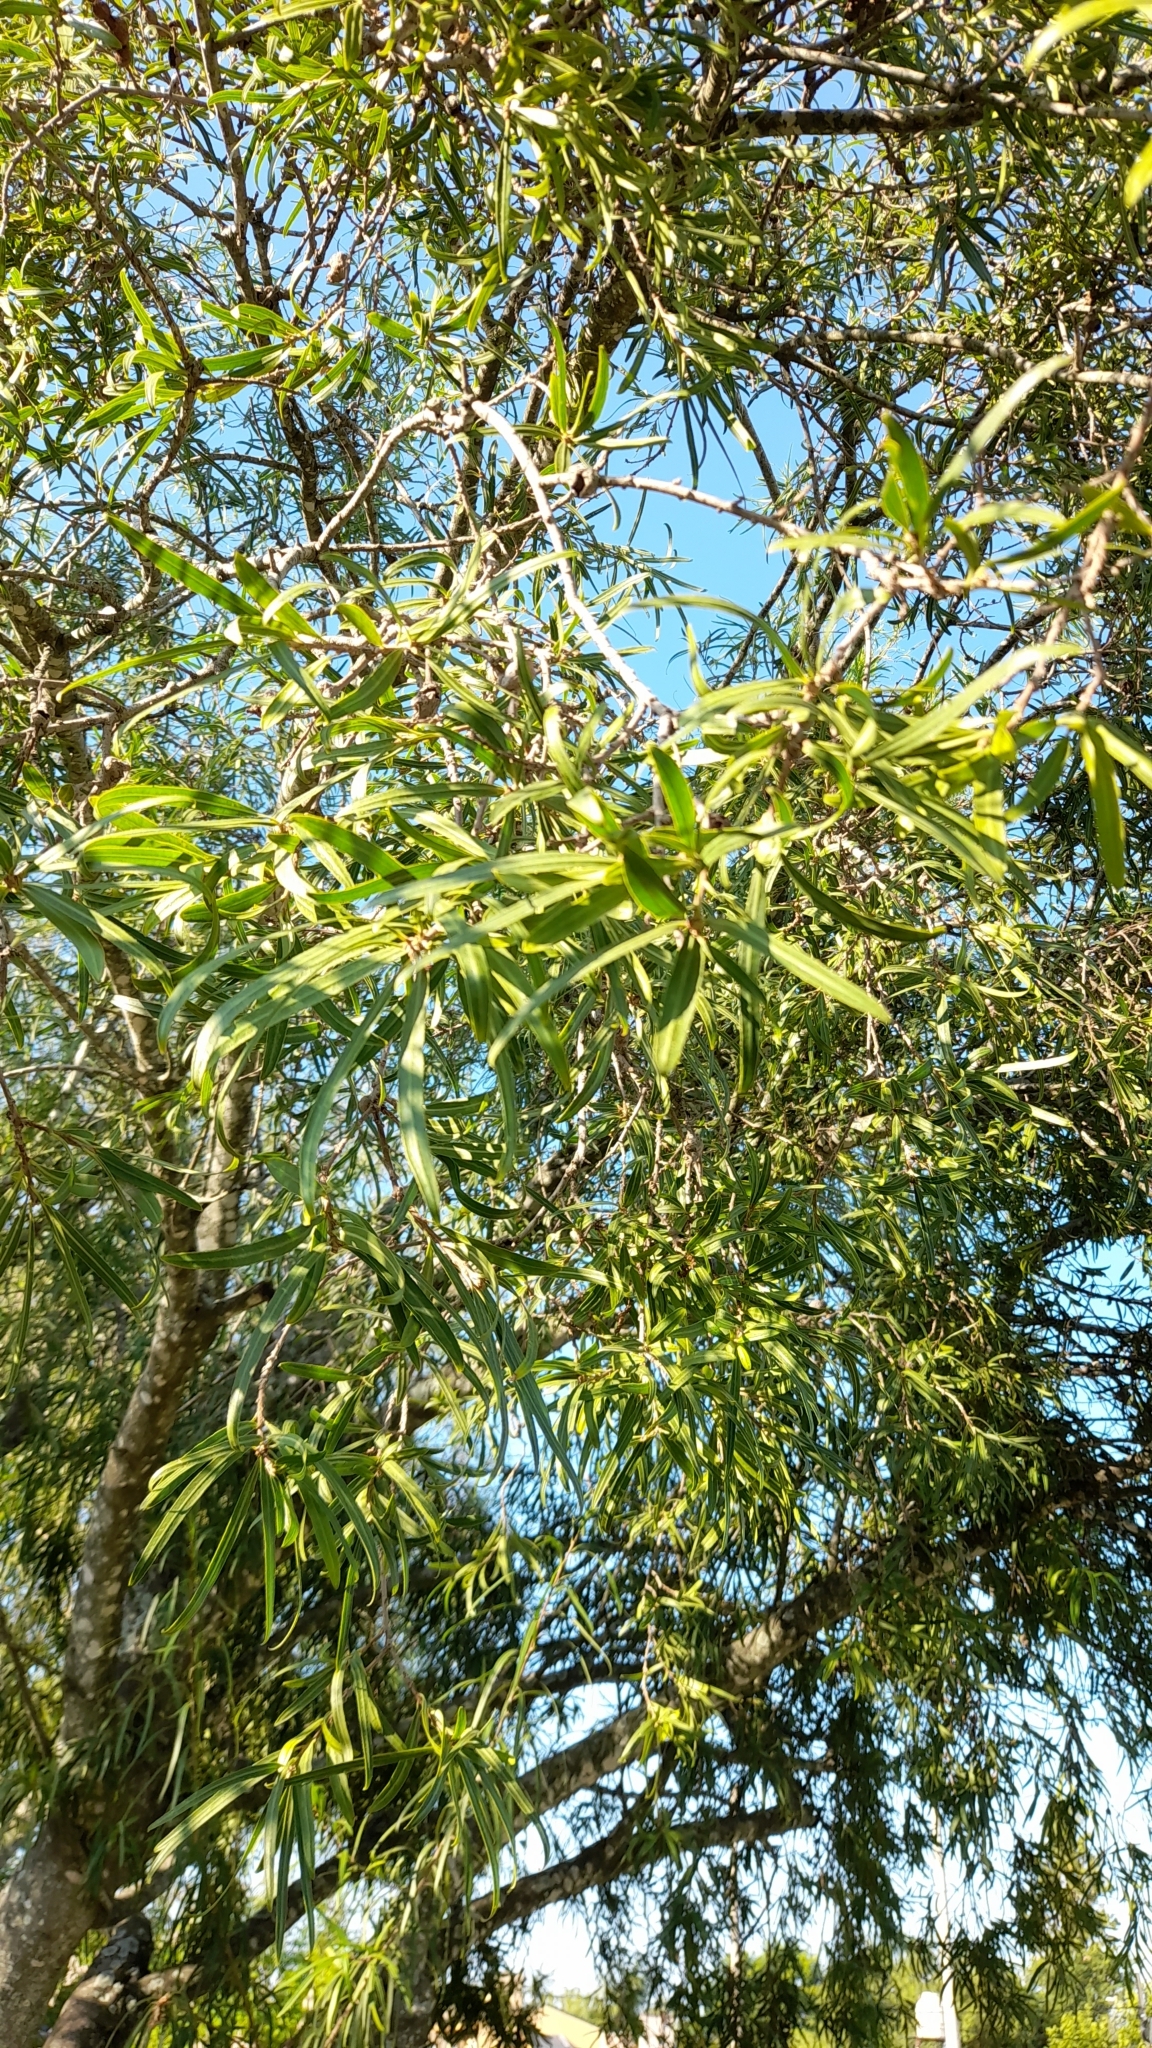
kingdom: Plantae
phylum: Tracheophyta
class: Magnoliopsida
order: Malpighiales
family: Euphorbiaceae
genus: Sapium
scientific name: Sapium haematospermum
